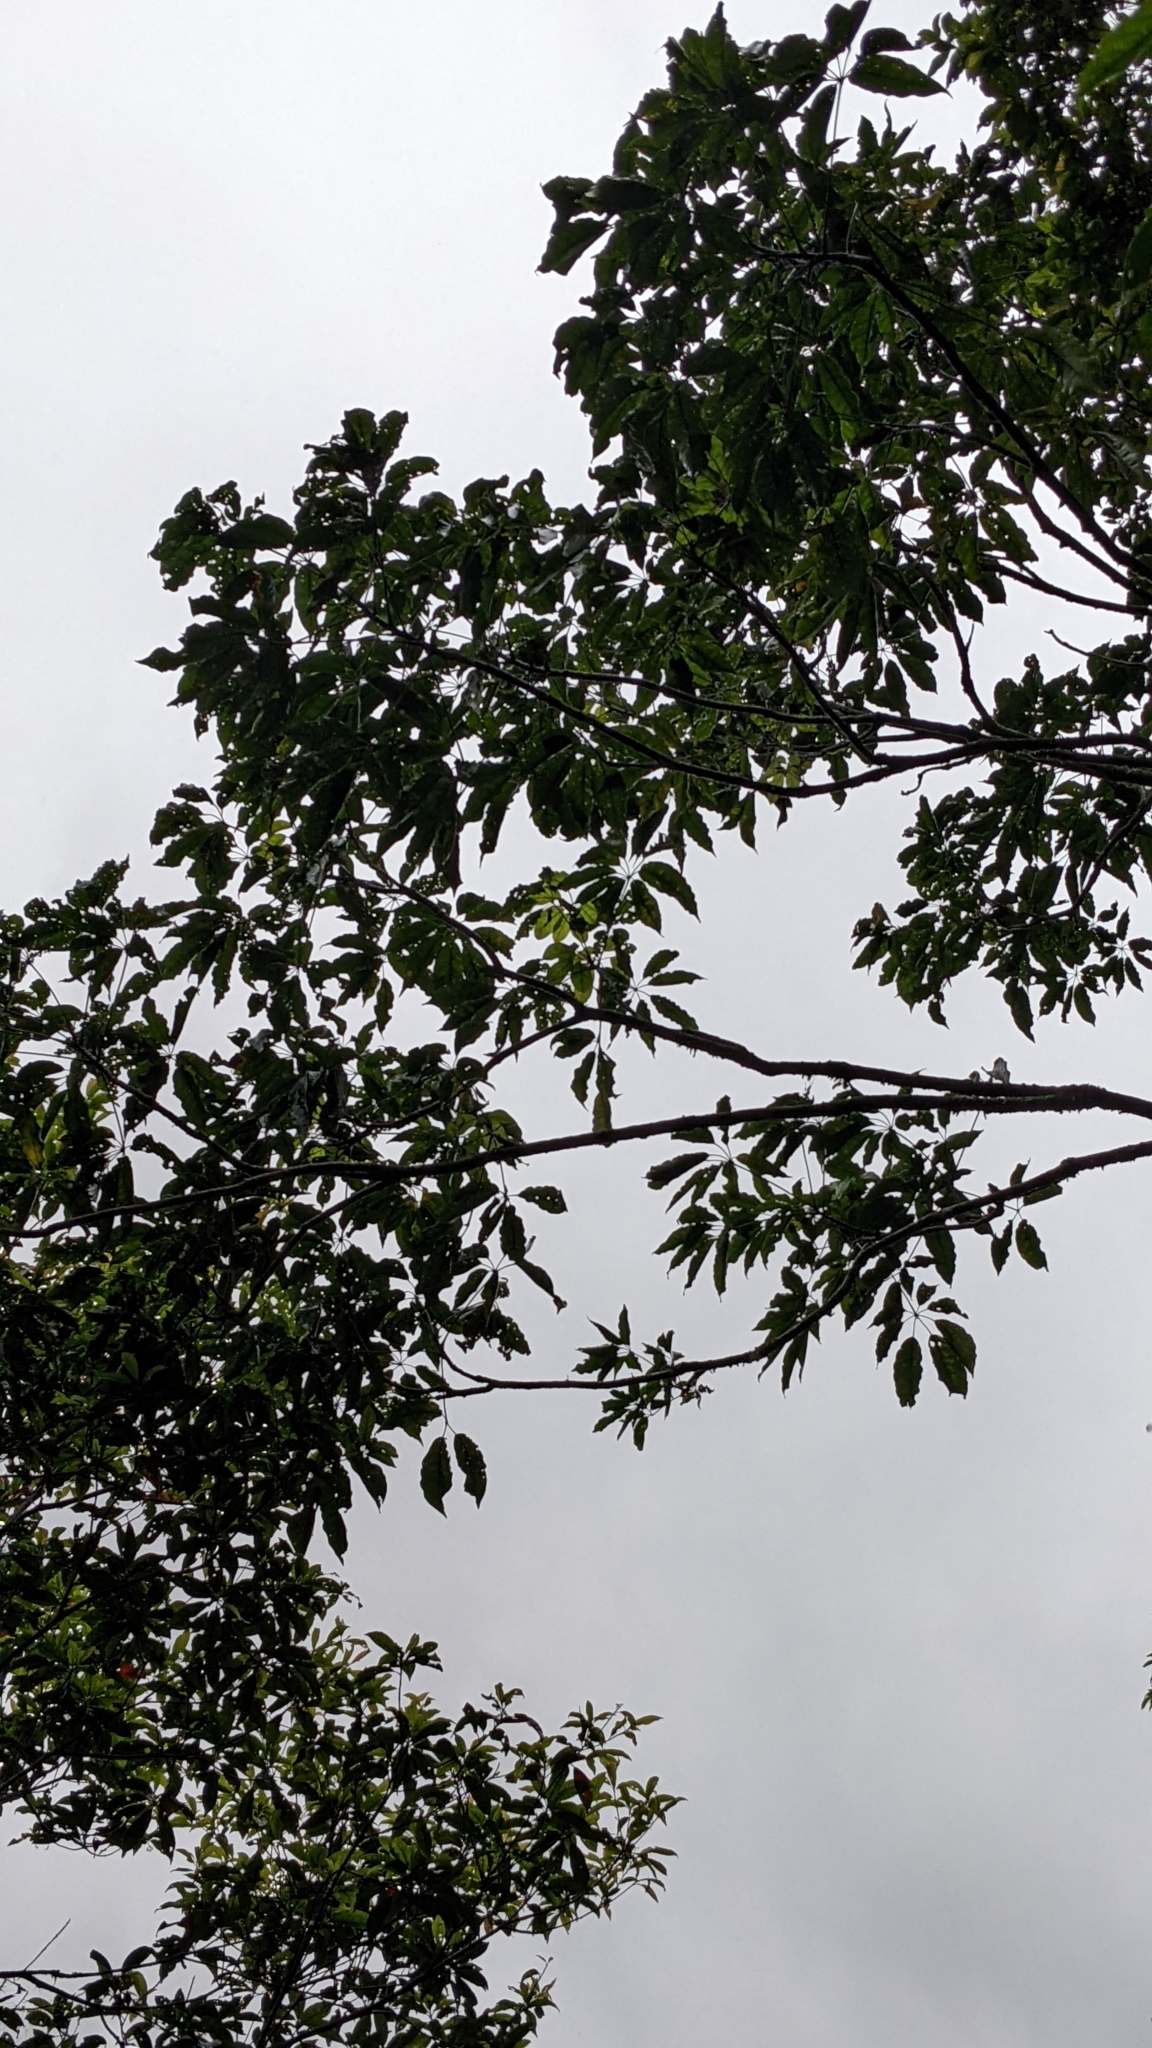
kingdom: Plantae
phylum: Tracheophyta
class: Magnoliopsida
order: Apiales
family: Araliaceae
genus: Heptapleurum
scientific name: Heptapleurum heptaphyllum
